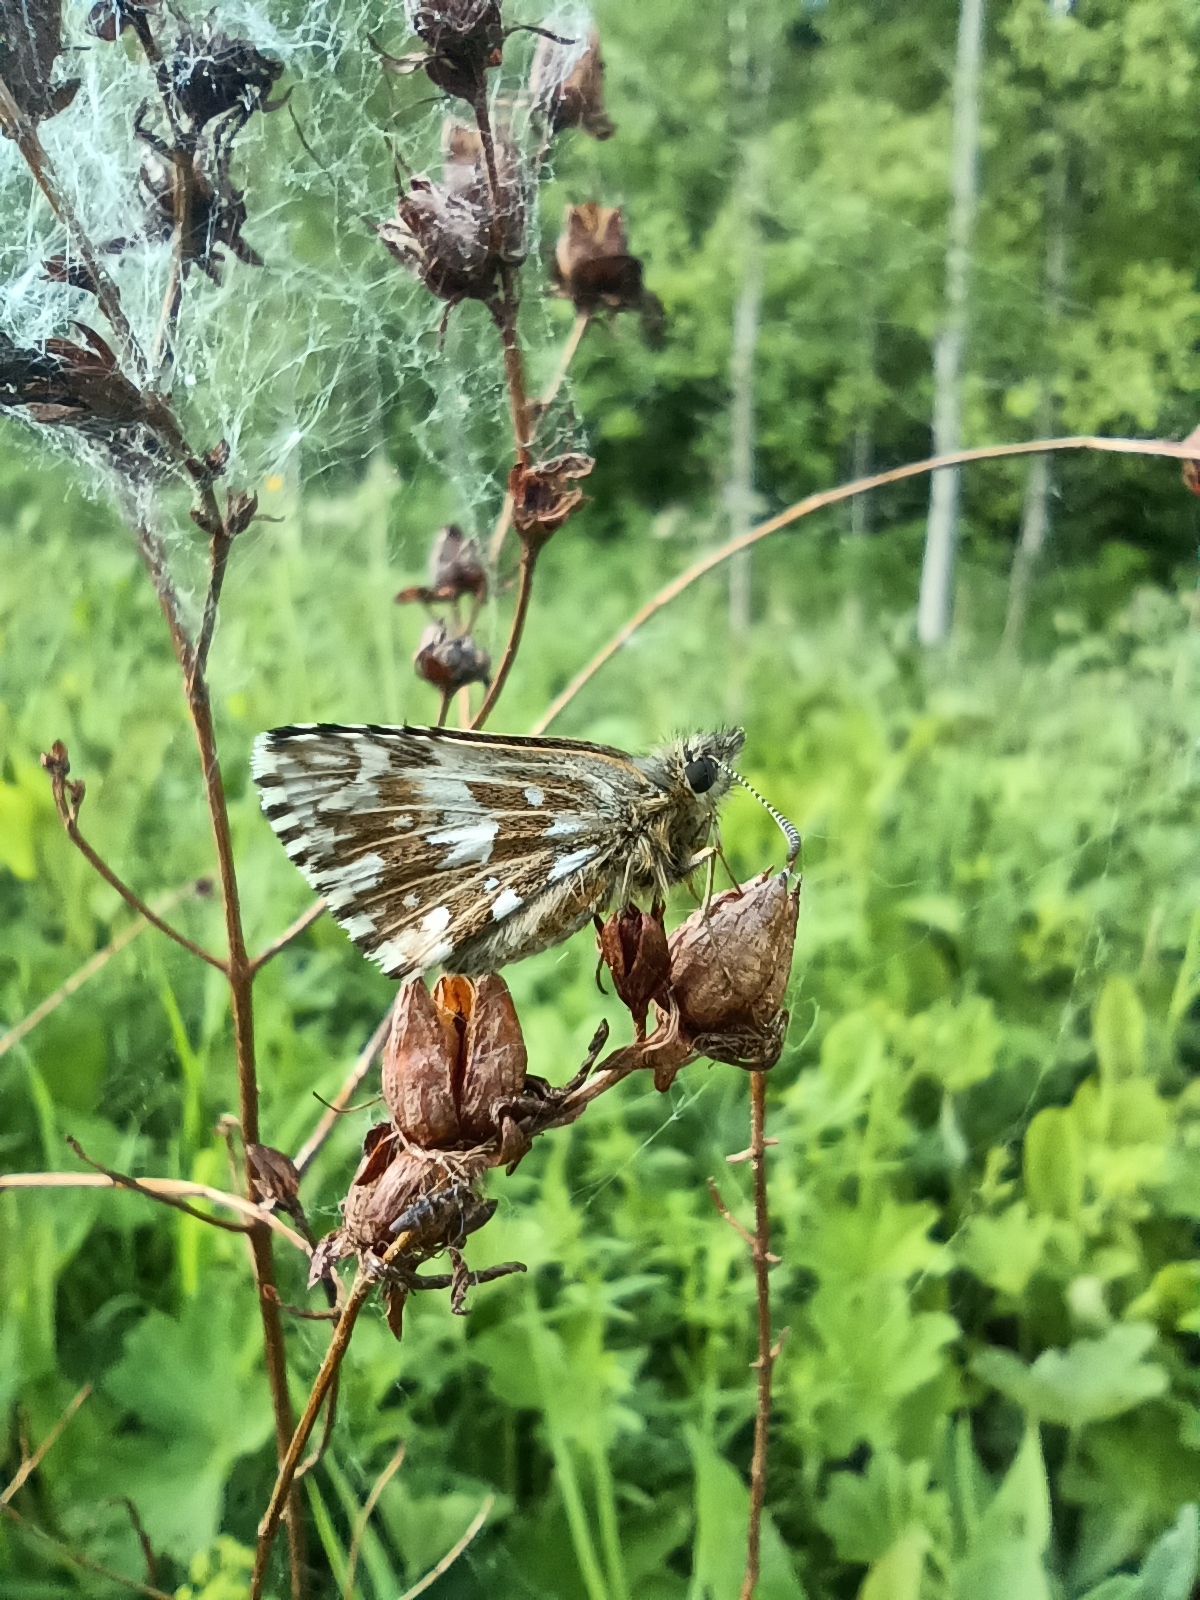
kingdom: Animalia
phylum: Arthropoda
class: Insecta
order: Lepidoptera
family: Hesperiidae
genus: Pyrgus
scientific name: Pyrgus malvae
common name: Grizzled skipper
